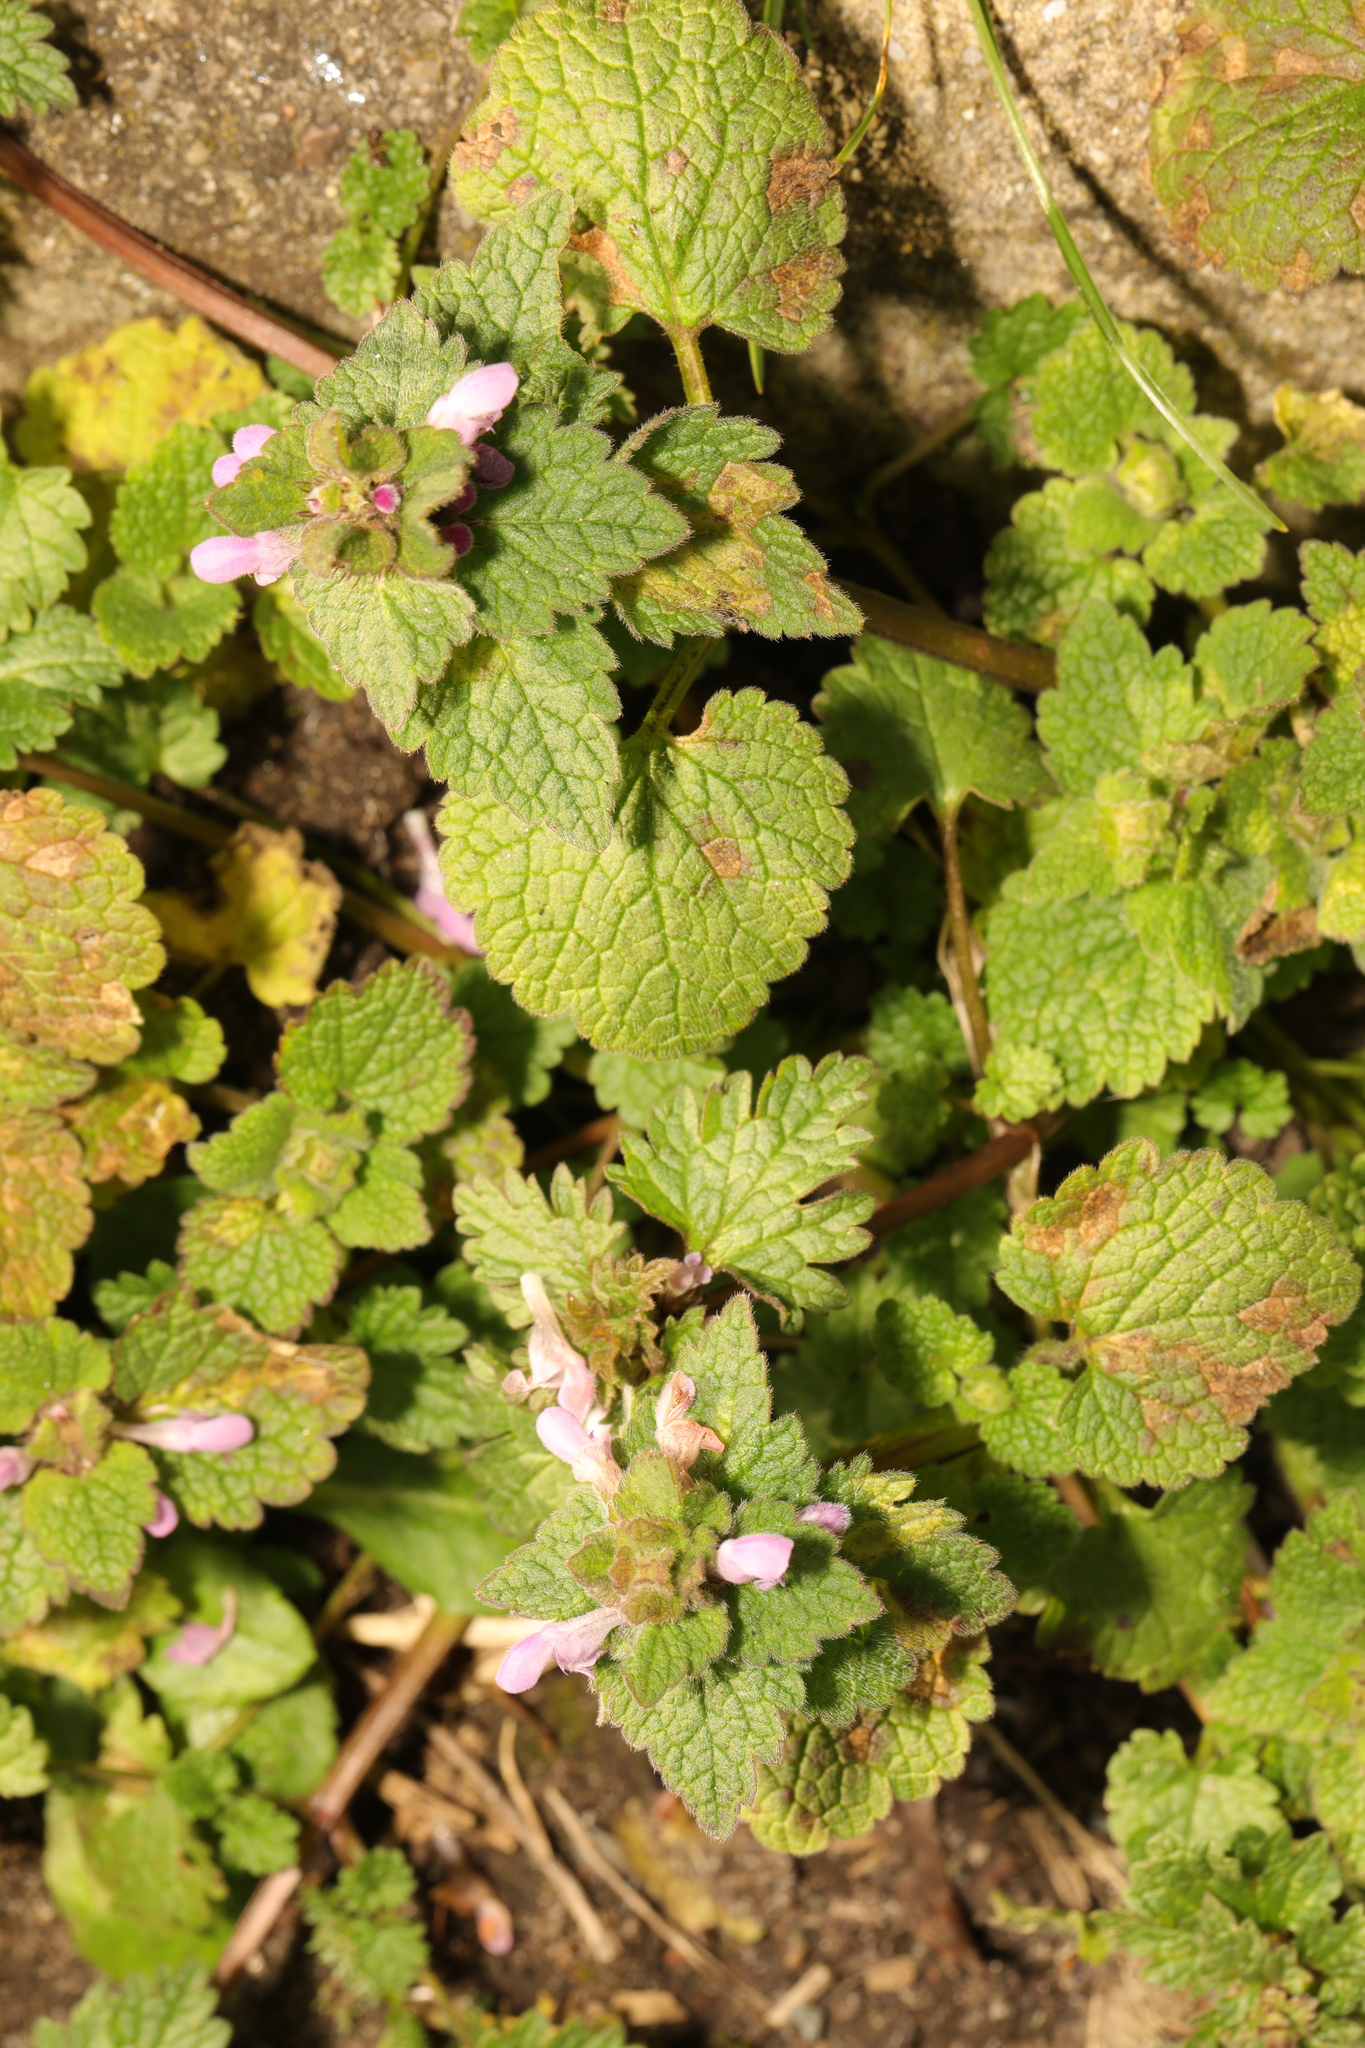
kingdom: Plantae
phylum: Tracheophyta
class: Magnoliopsida
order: Lamiales
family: Lamiaceae
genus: Lamium
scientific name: Lamium purpureum
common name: Red dead-nettle
